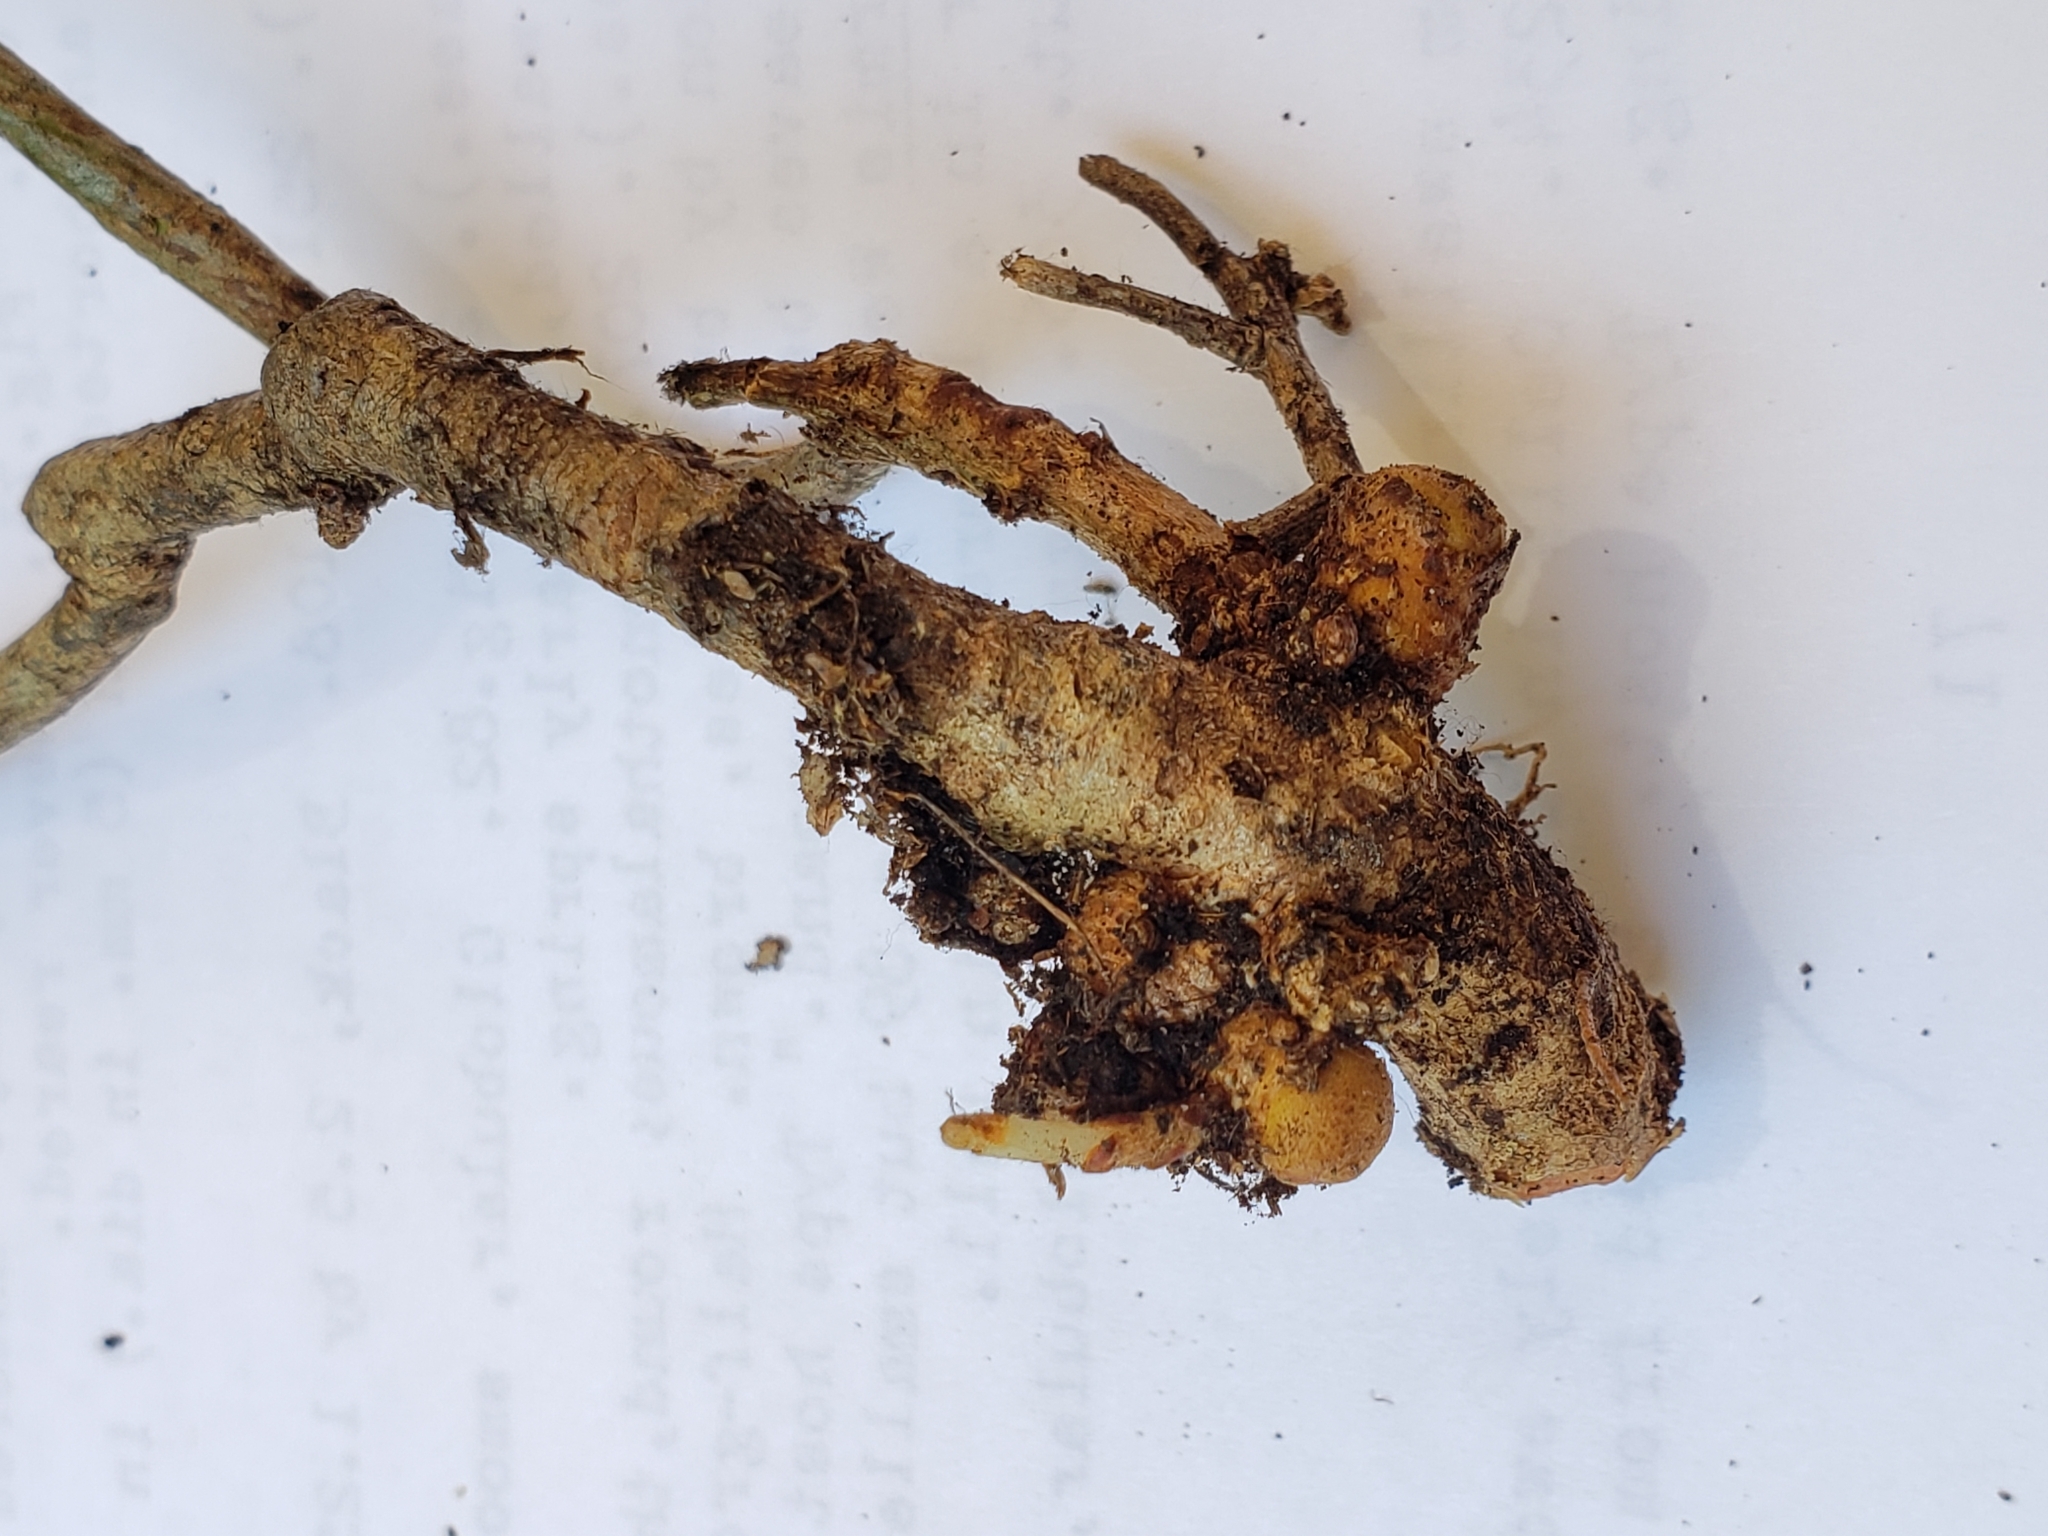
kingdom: Animalia
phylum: Arthropoda
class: Insecta
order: Hymenoptera
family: Cynipidae
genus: Holocynips
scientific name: Holocynips
